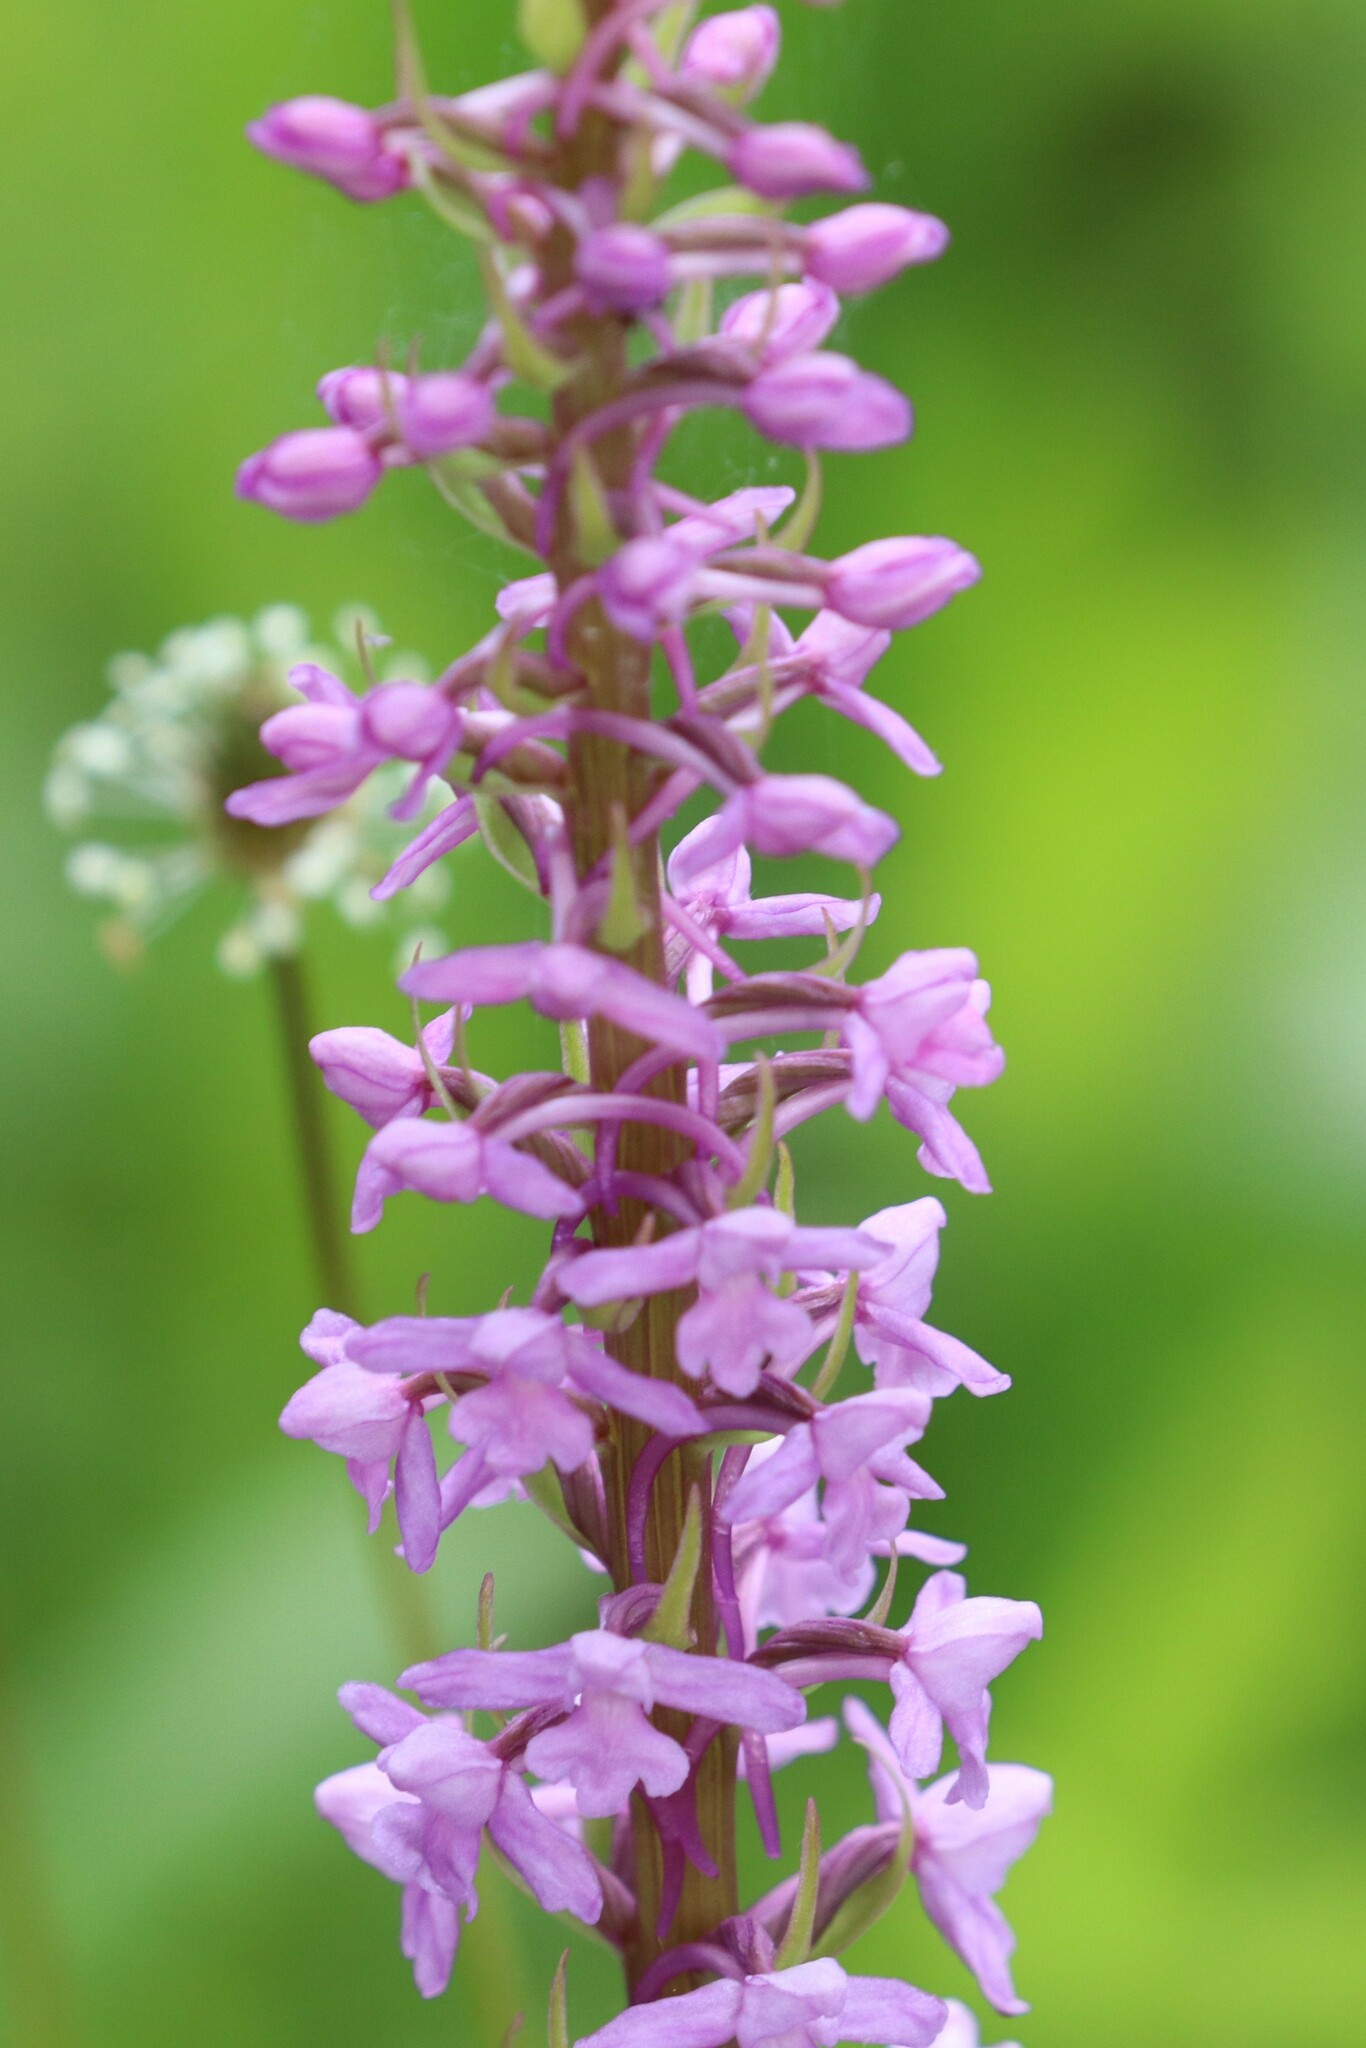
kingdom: Plantae
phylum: Tracheophyta
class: Liliopsida
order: Asparagales
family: Orchidaceae
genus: Gymnadenia
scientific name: Gymnadenia conopsea
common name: Fragrant orchid
